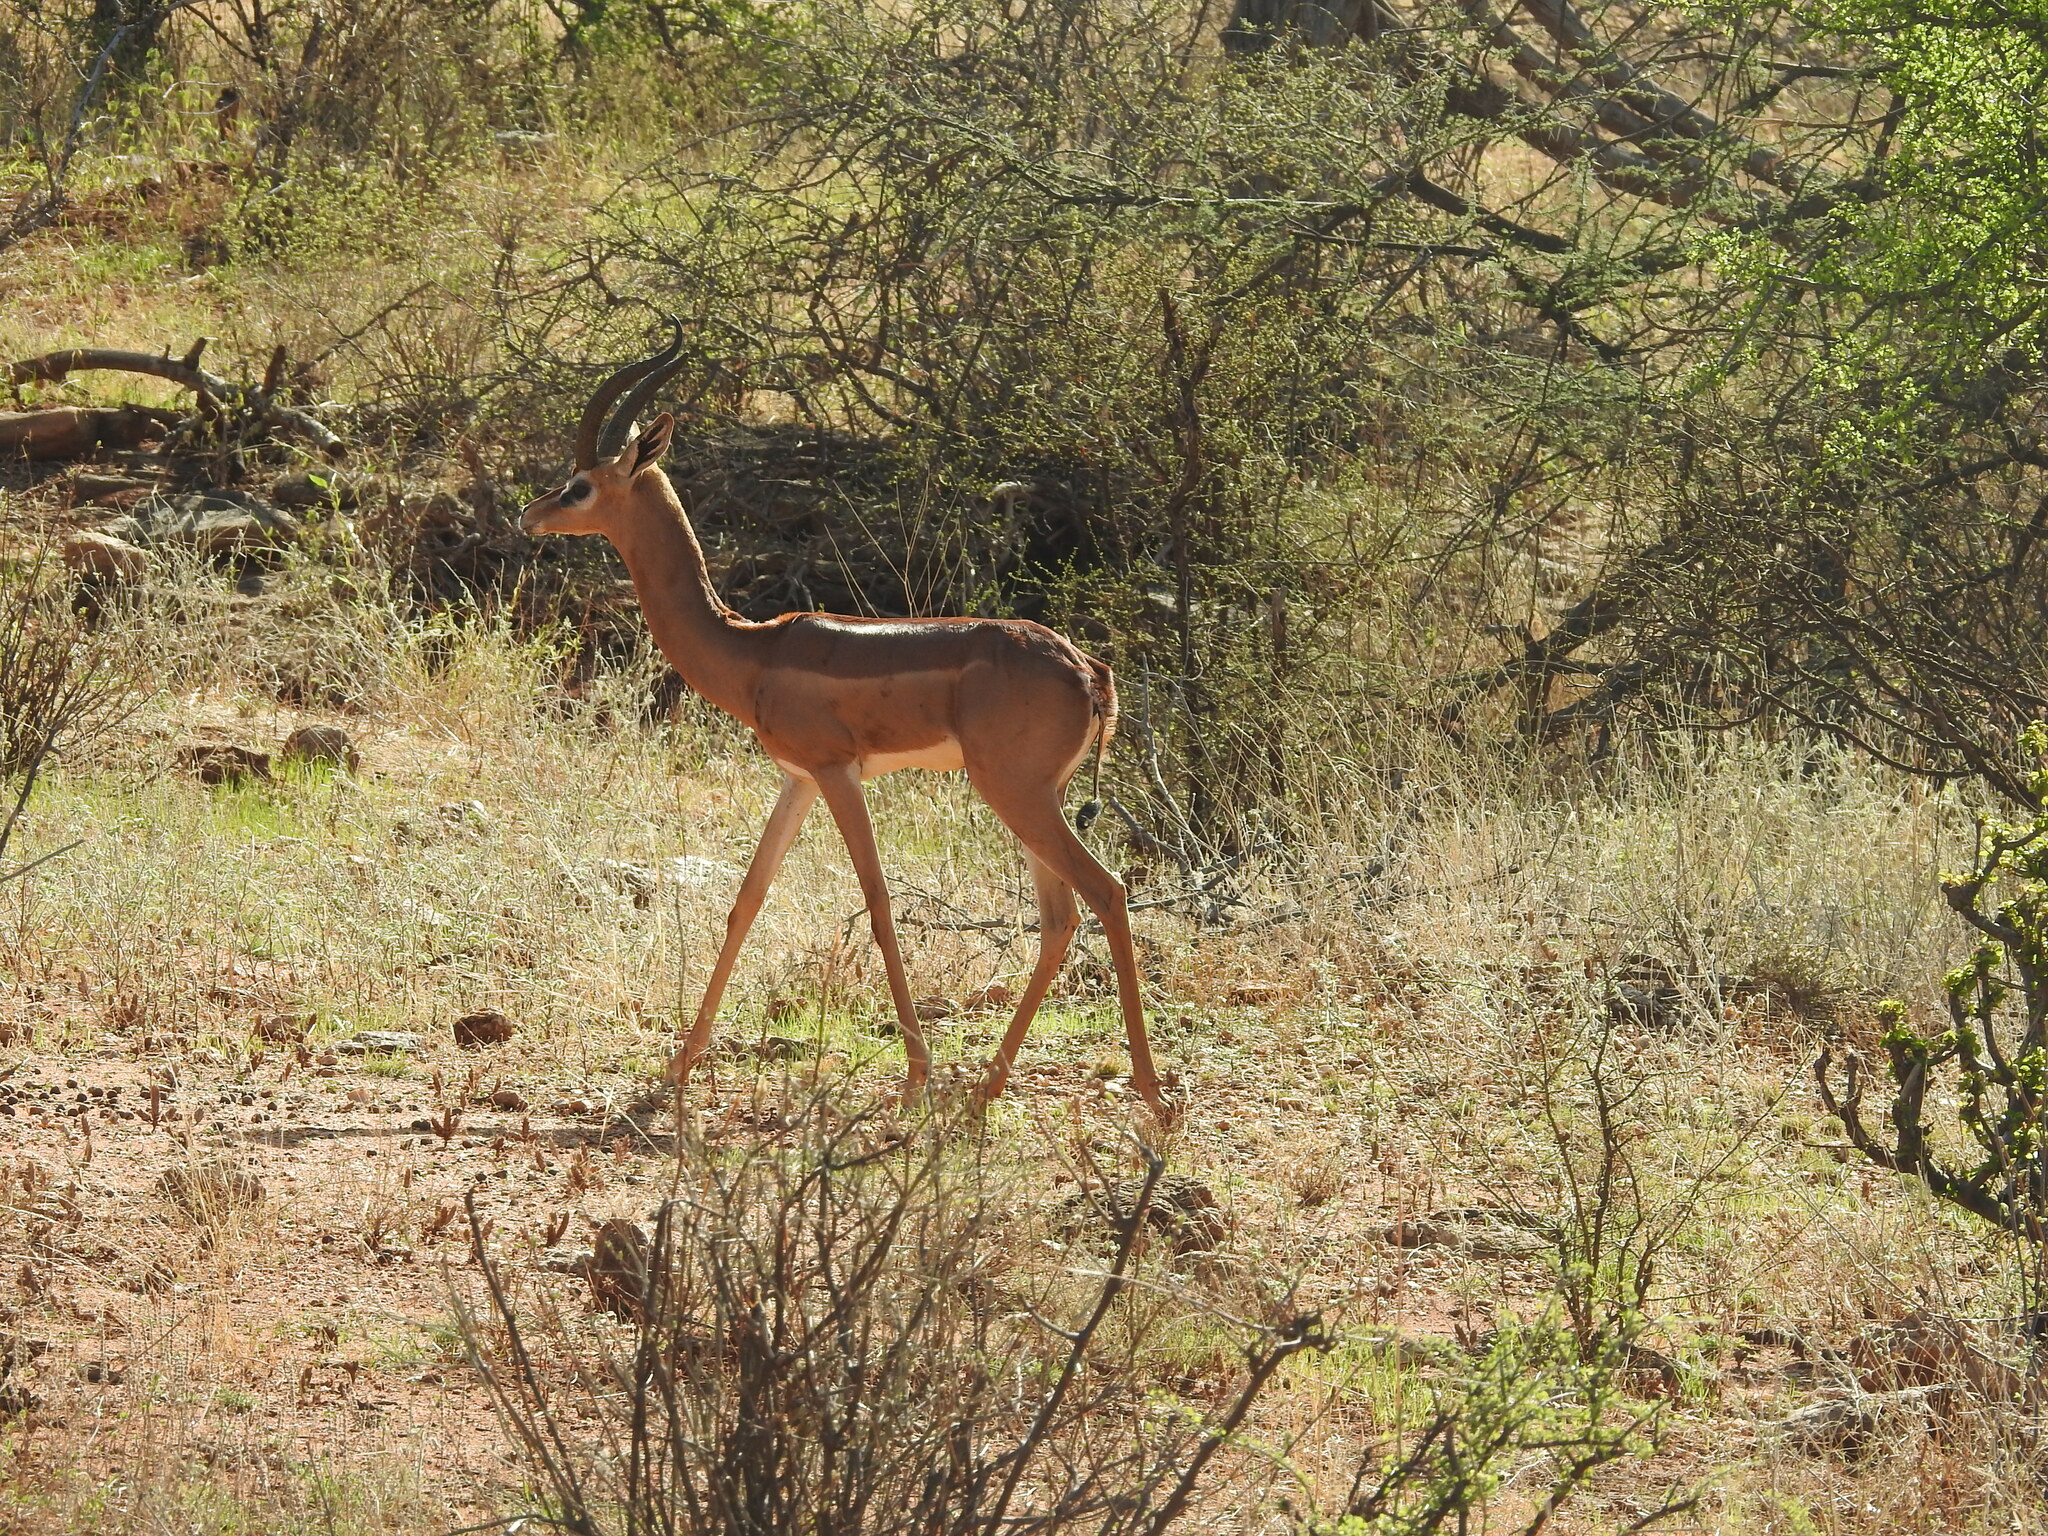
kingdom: Animalia
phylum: Chordata
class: Mammalia
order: Artiodactyla
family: Bovidae
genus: Litocranius
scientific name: Litocranius walleri
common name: Gerenuk
